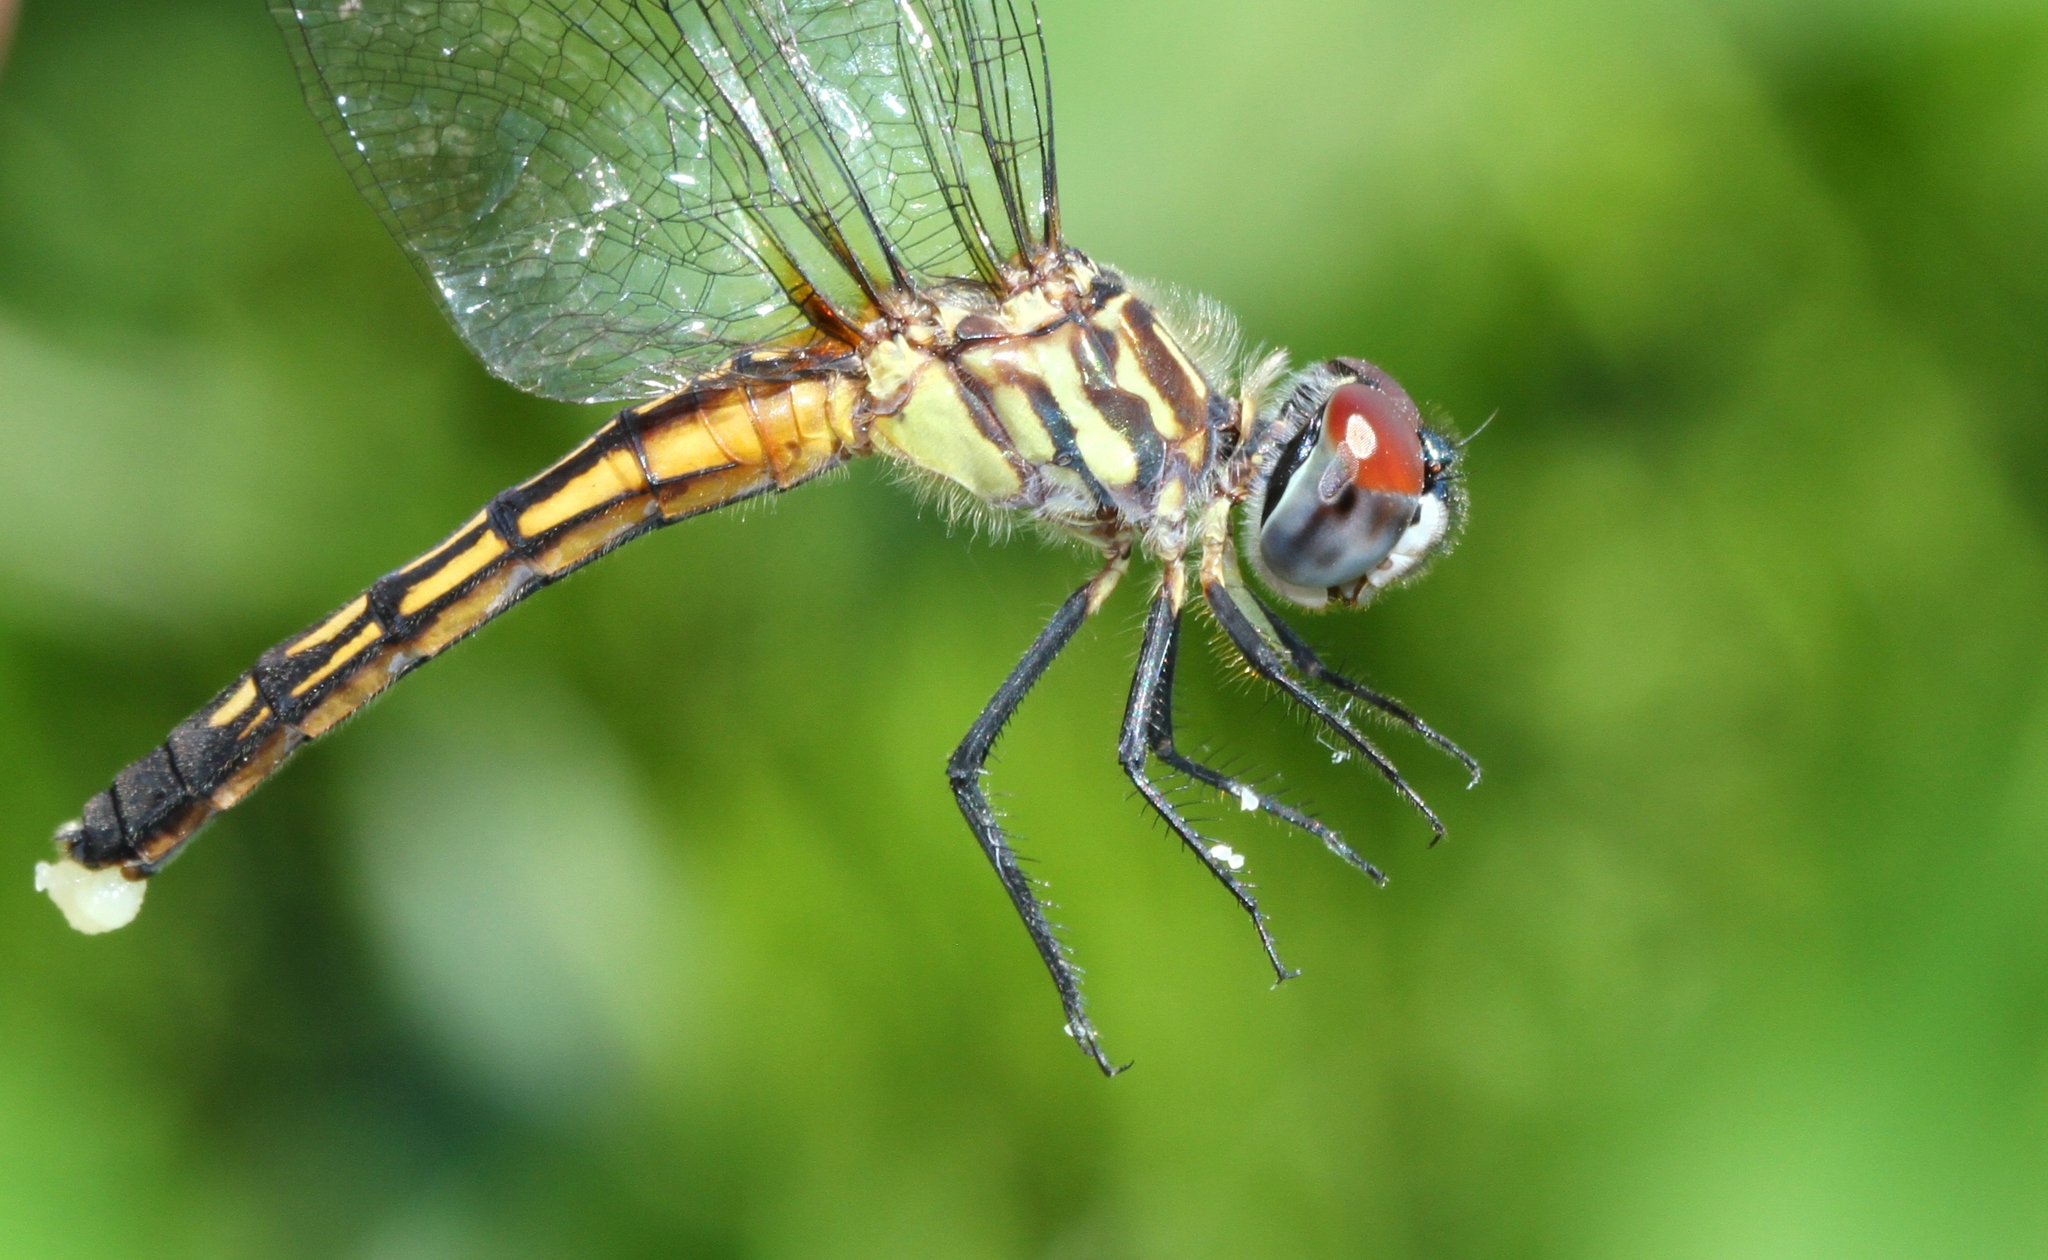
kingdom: Animalia
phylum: Arthropoda
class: Insecta
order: Odonata
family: Libellulidae
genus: Pachydiplax
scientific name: Pachydiplax longipennis
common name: Blue dasher
